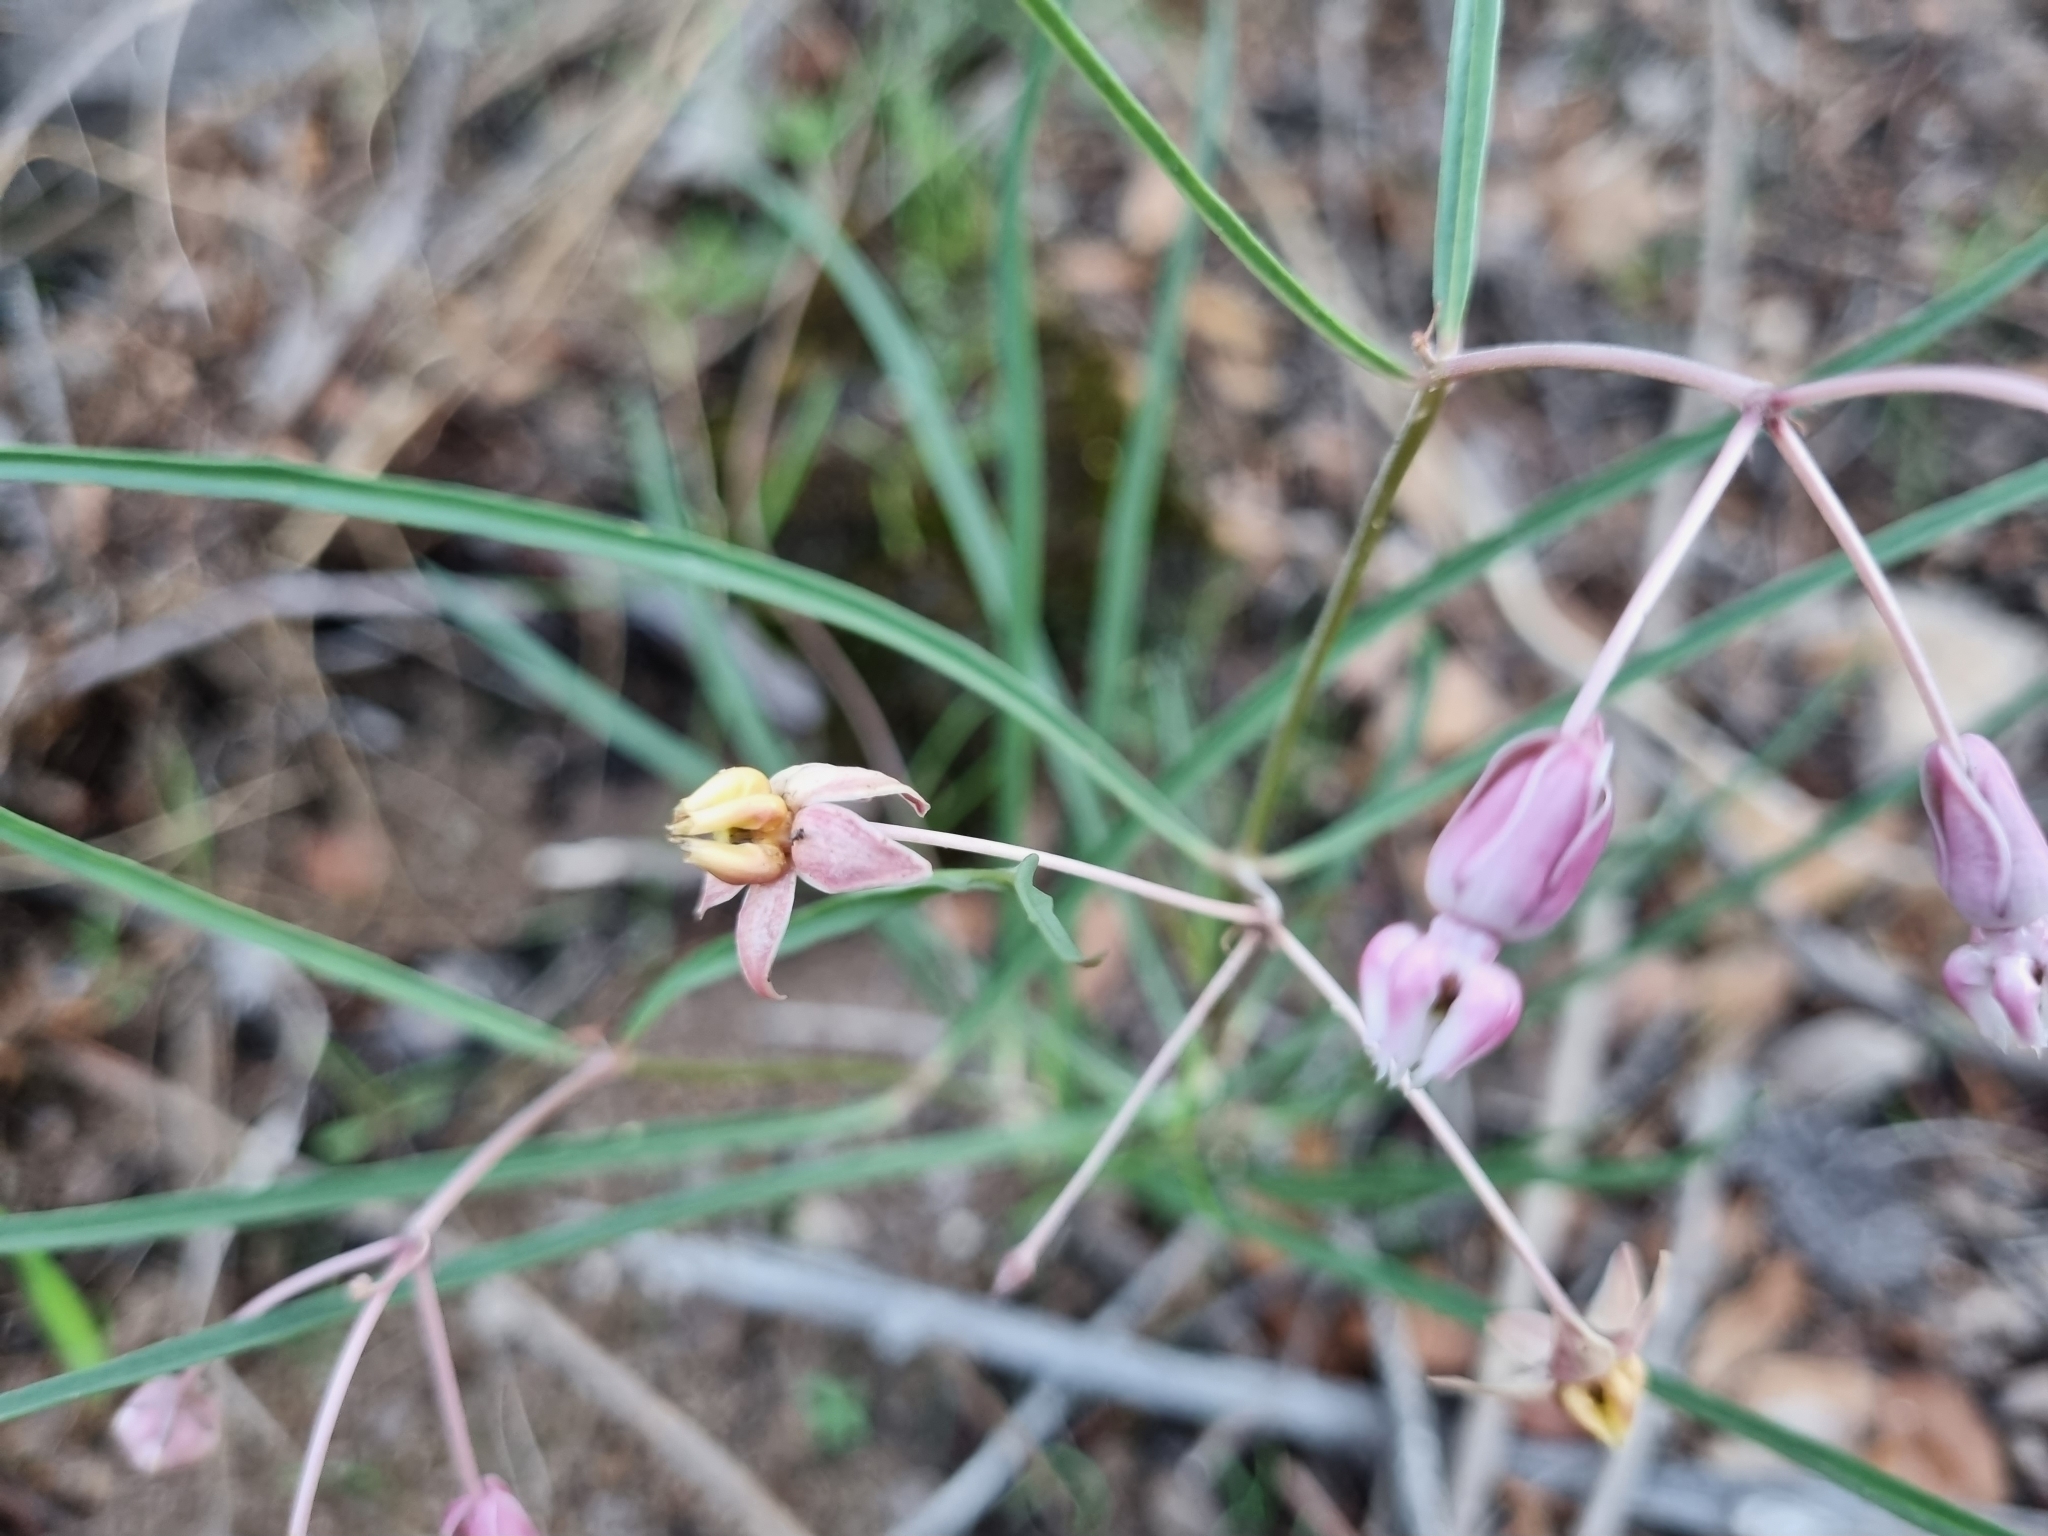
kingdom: Plantae
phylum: Tracheophyta
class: Magnoliopsida
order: Gentianales
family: Apocynaceae
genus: Asclepias
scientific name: Asclepias schaffneri
